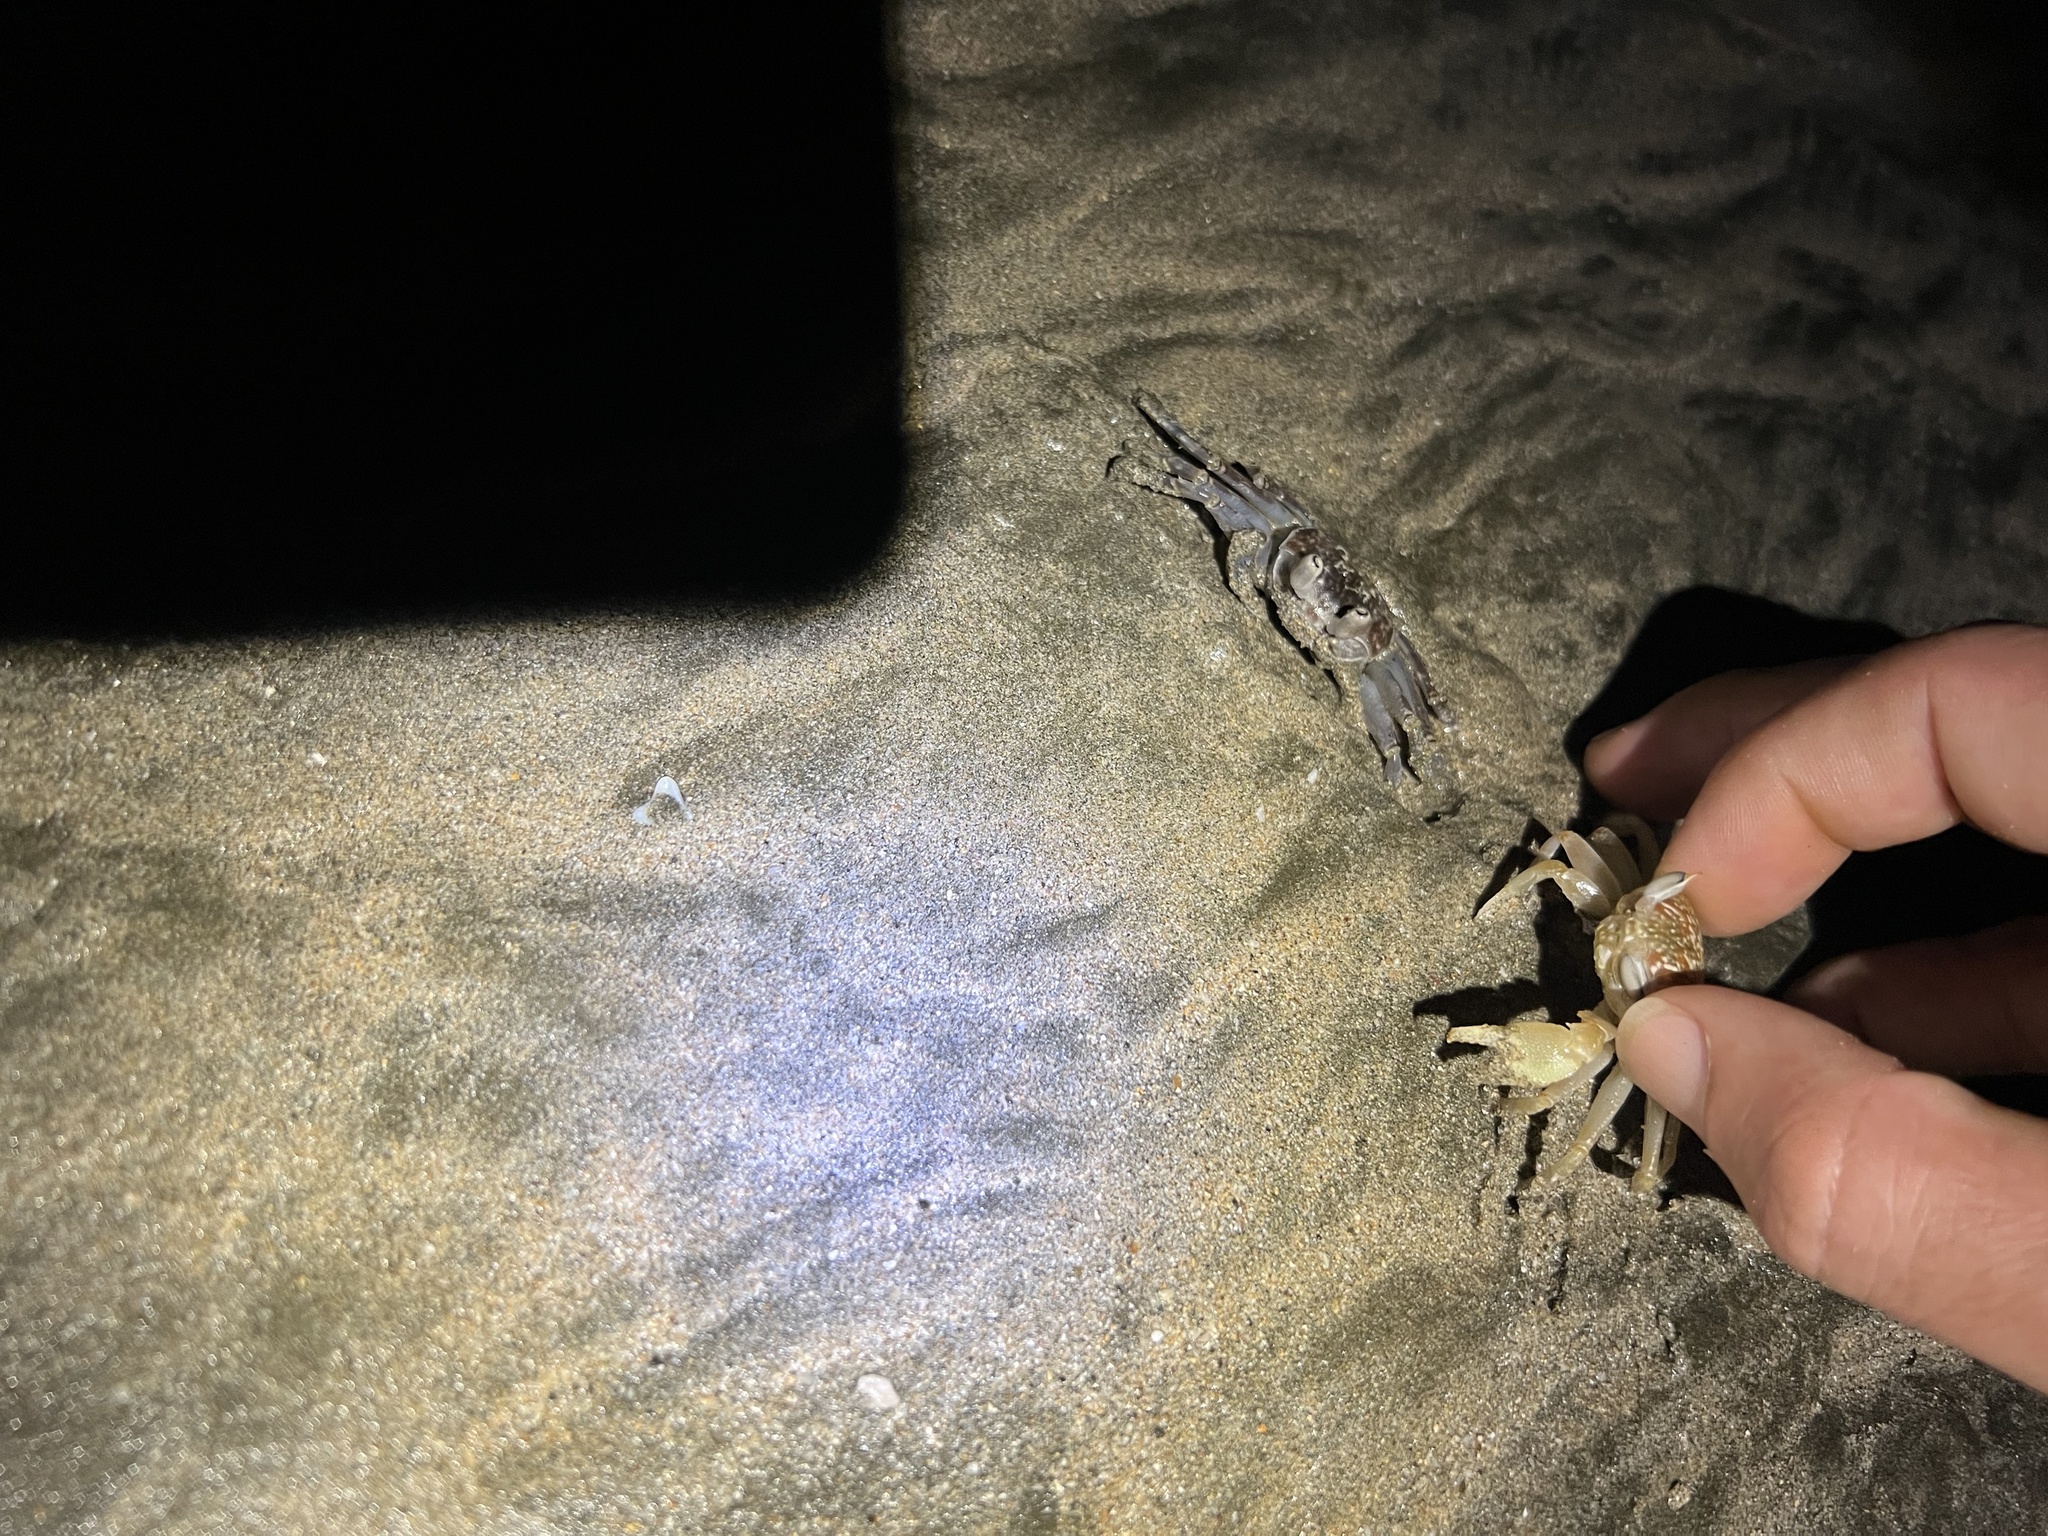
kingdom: Animalia
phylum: Arthropoda
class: Malacostraca
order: Decapoda
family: Ocypodidae
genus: Ocypode
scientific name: Ocypode occidentalis
